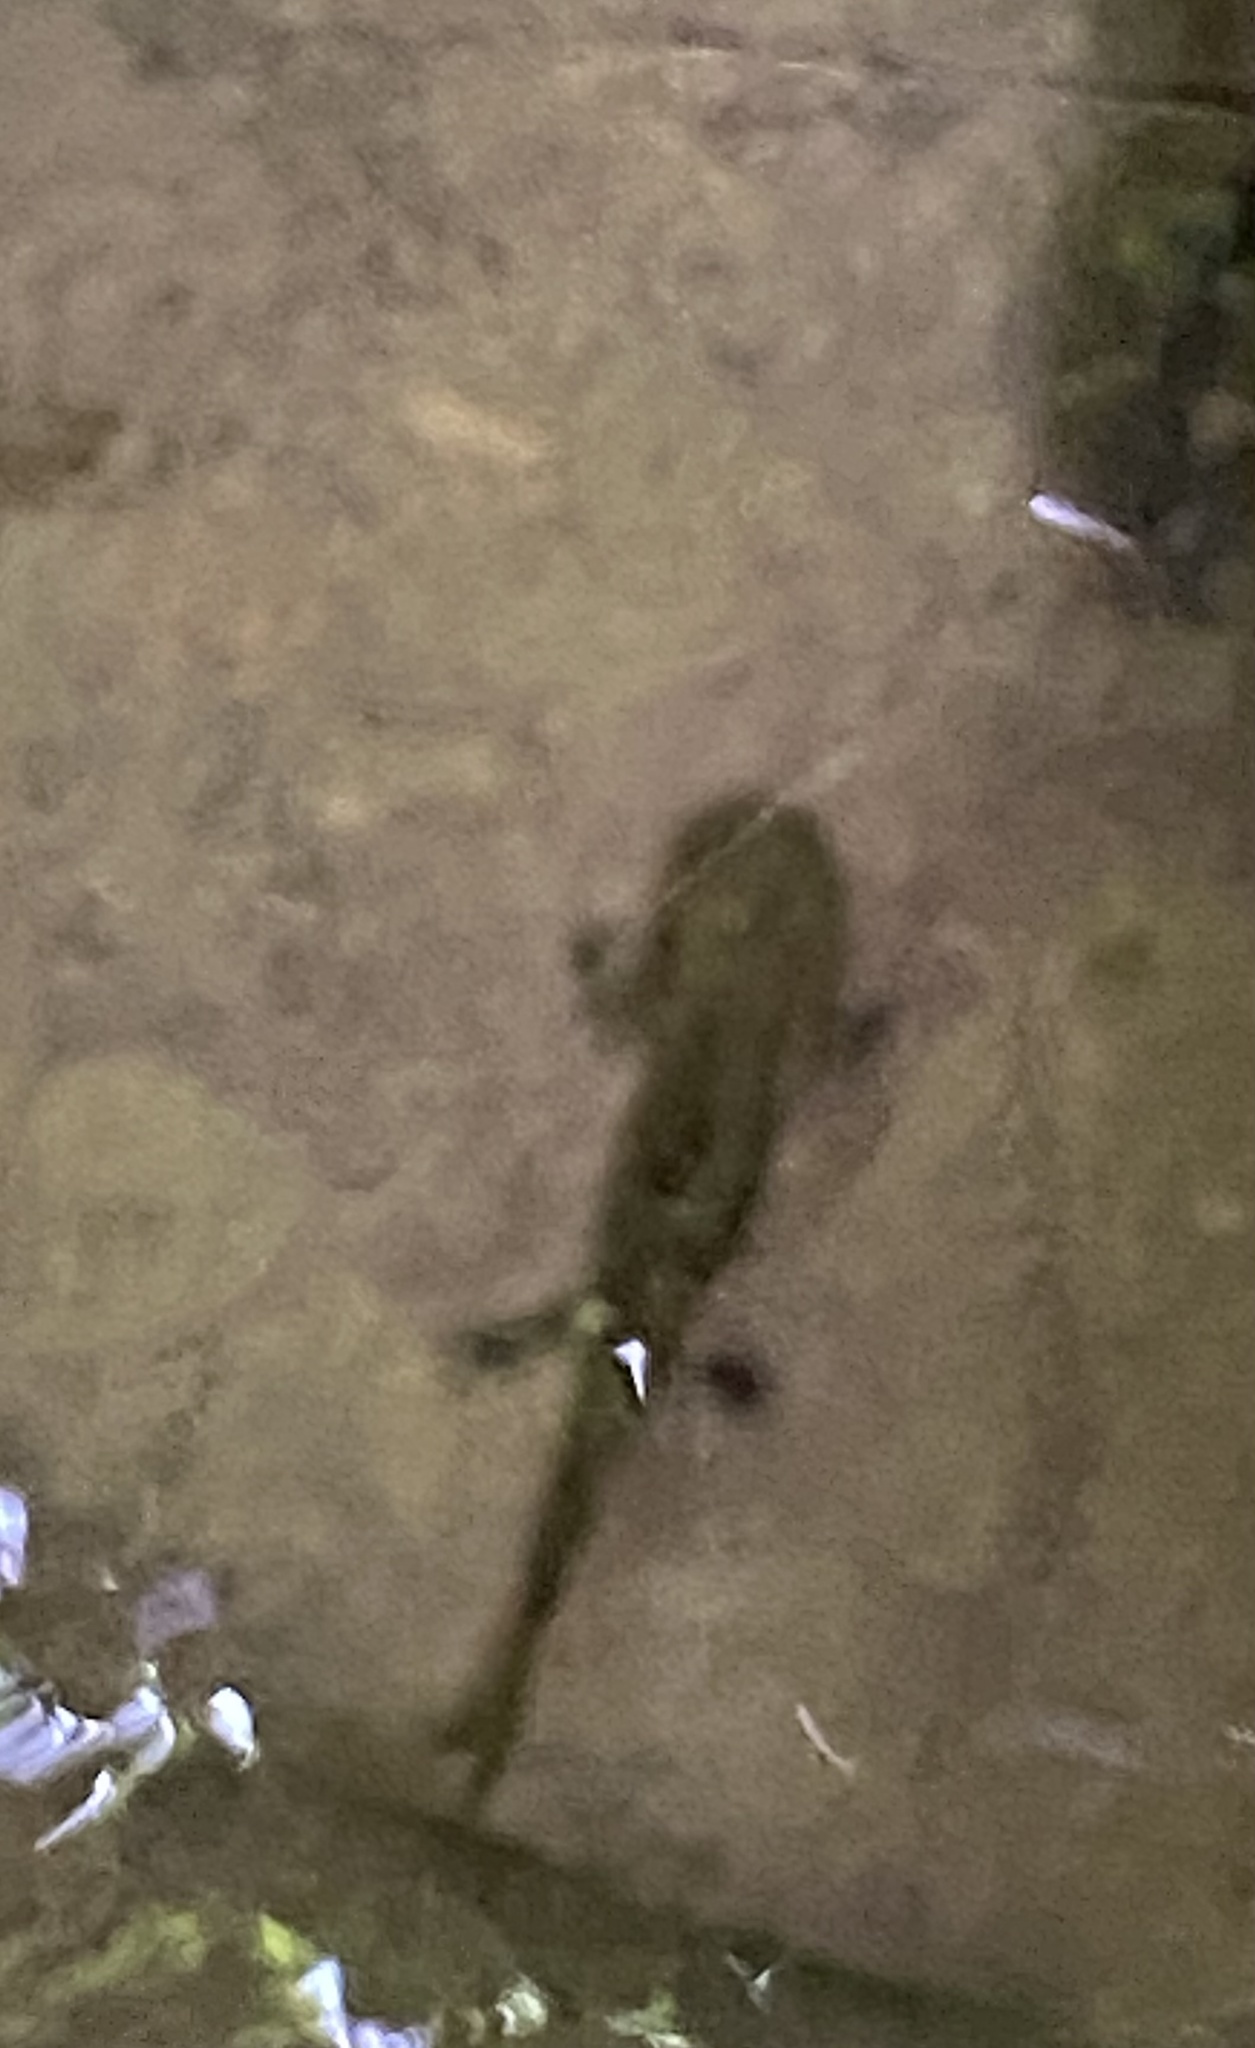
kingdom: Animalia
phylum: Chordata
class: Amphibia
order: Caudata
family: Salamandridae
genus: Salamandra
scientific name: Salamandra salamandra
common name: Fire salamander
